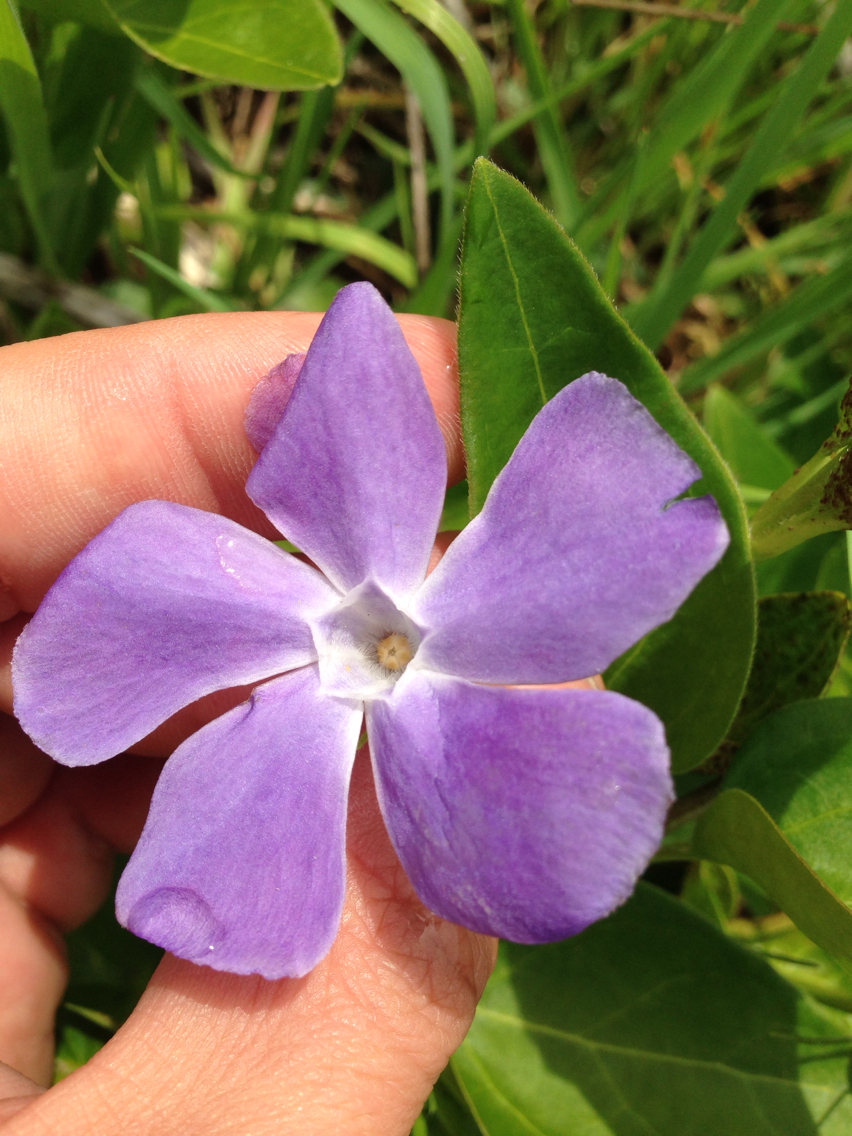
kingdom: Plantae
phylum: Tracheophyta
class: Magnoliopsida
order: Gentianales
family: Apocynaceae
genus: Vinca
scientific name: Vinca major
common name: Greater periwinkle
